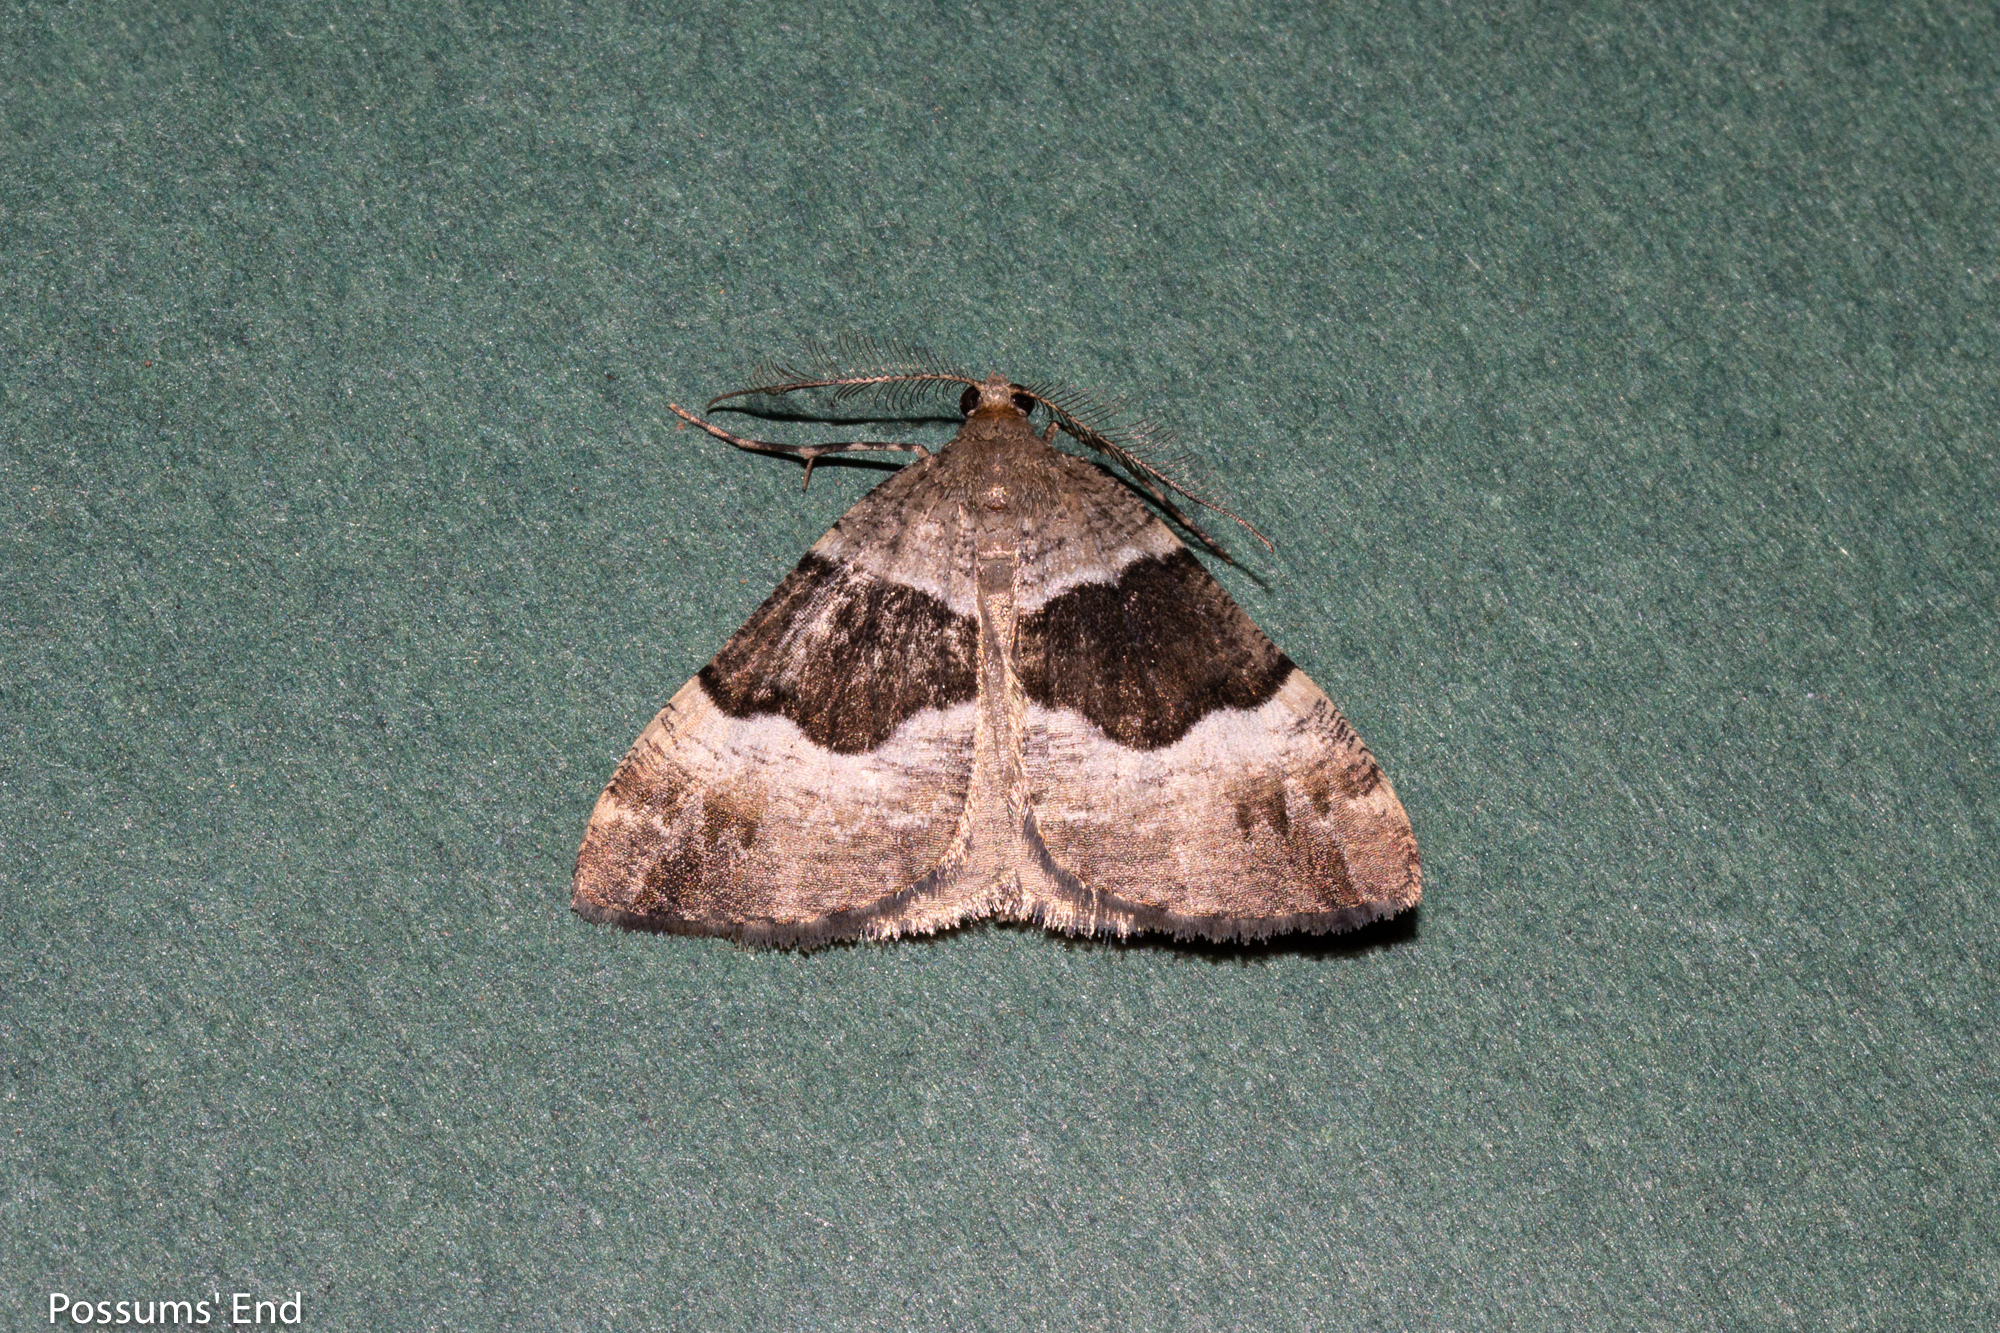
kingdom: Animalia
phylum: Arthropoda
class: Insecta
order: Lepidoptera
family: Geometridae
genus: Pseudocoremia
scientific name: Pseudocoremia
